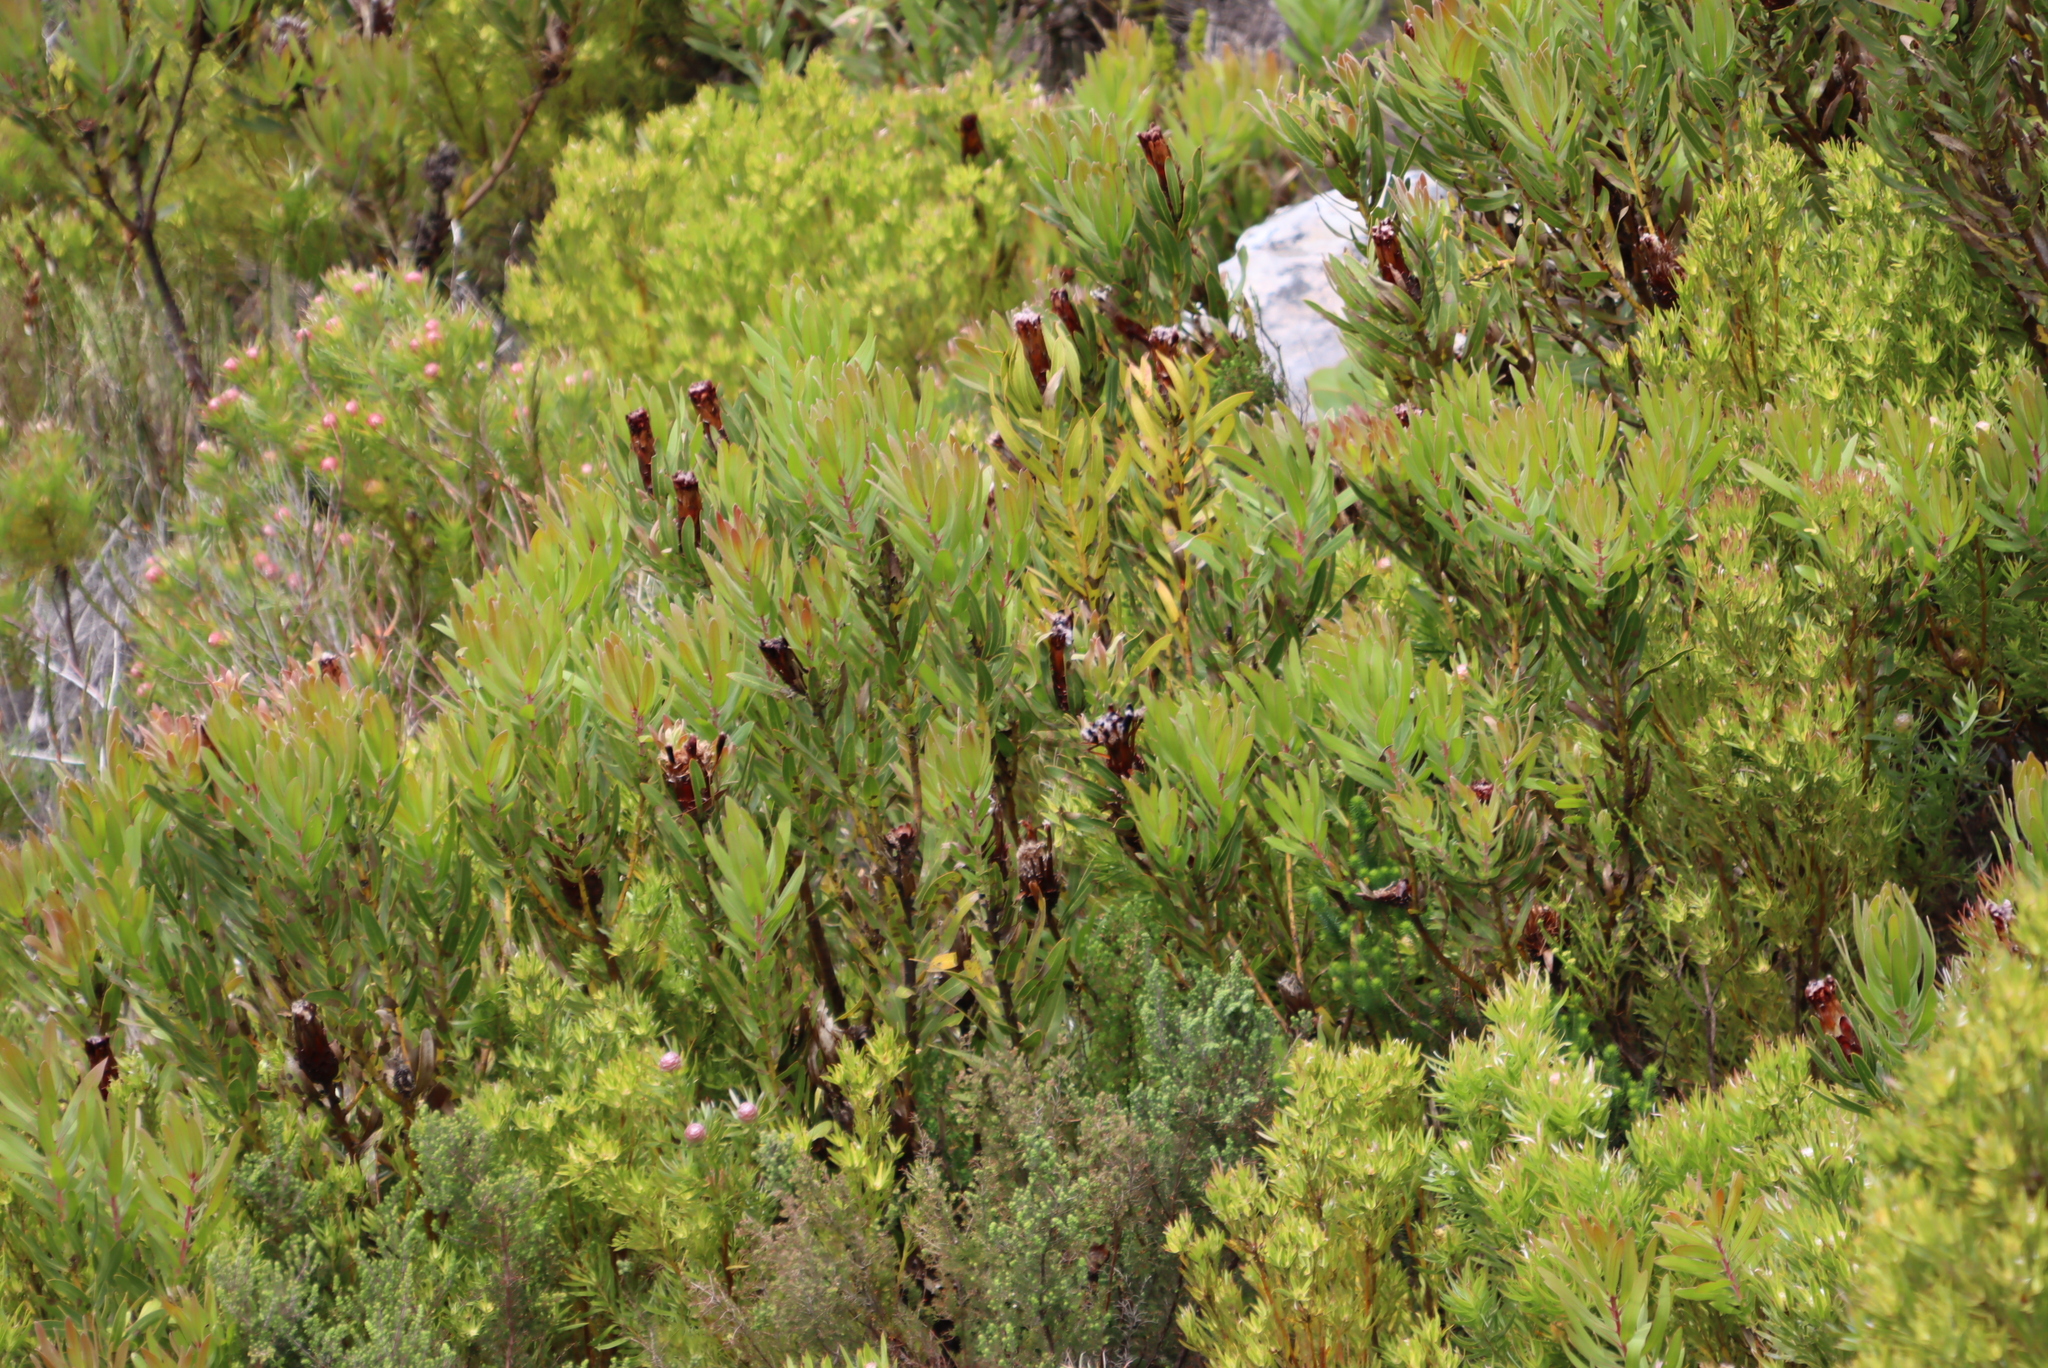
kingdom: Plantae
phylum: Tracheophyta
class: Magnoliopsida
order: Proteales
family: Proteaceae
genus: Protea
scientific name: Protea lepidocarpodendron
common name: Black-bearded protea
